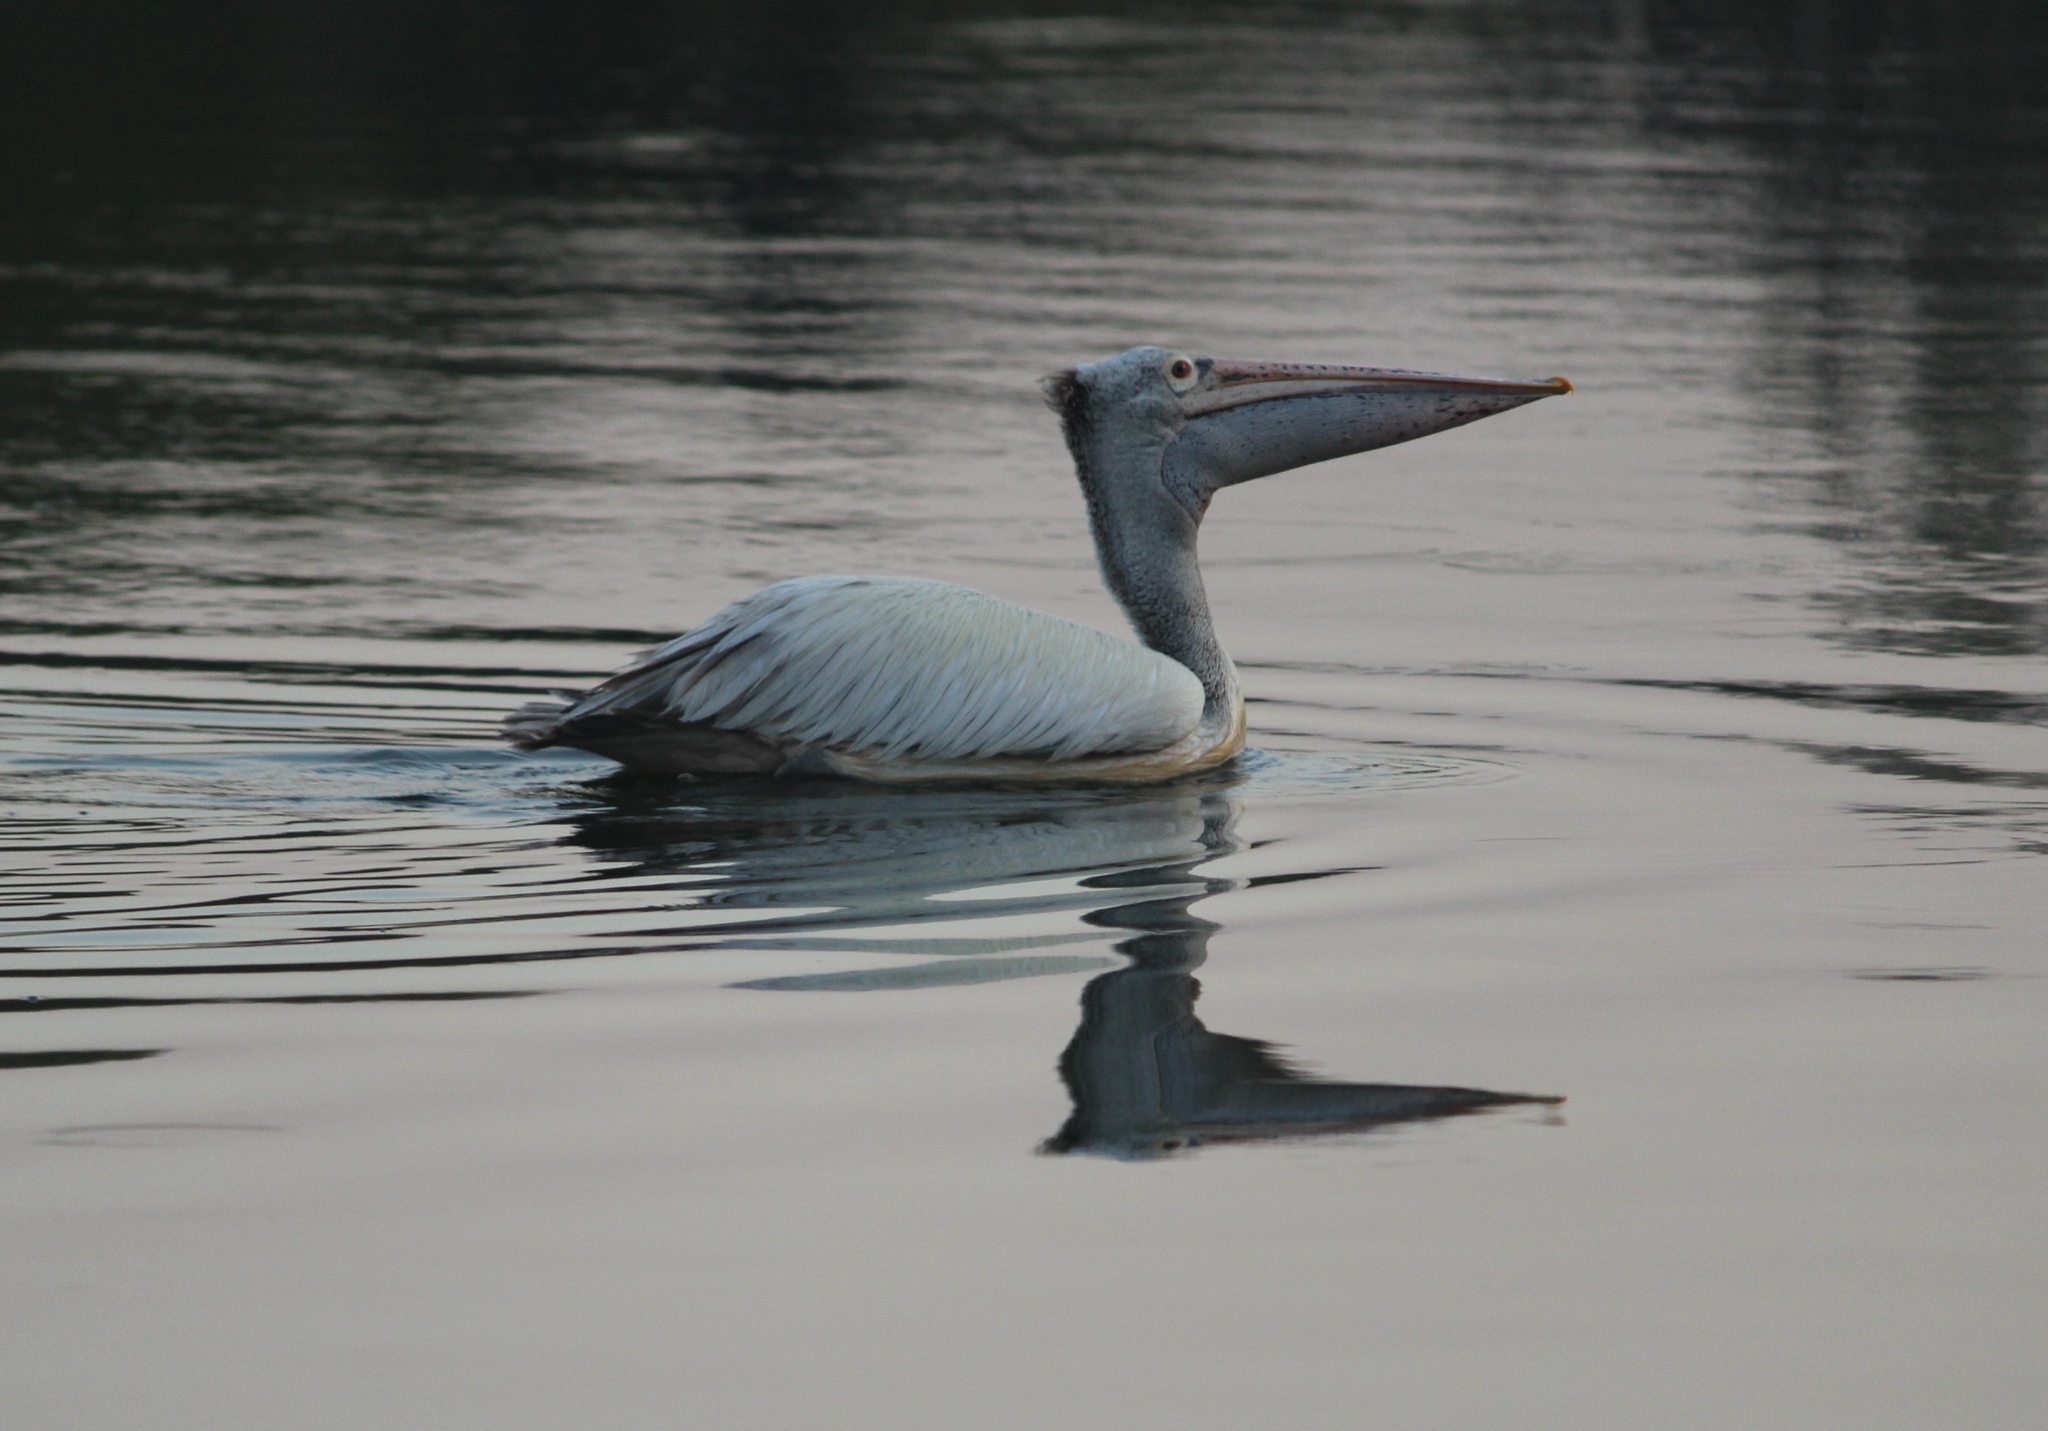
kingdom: Animalia
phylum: Chordata
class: Aves
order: Pelecaniformes
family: Pelecanidae
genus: Pelecanus
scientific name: Pelecanus philippensis
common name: Spot-billed pelican
